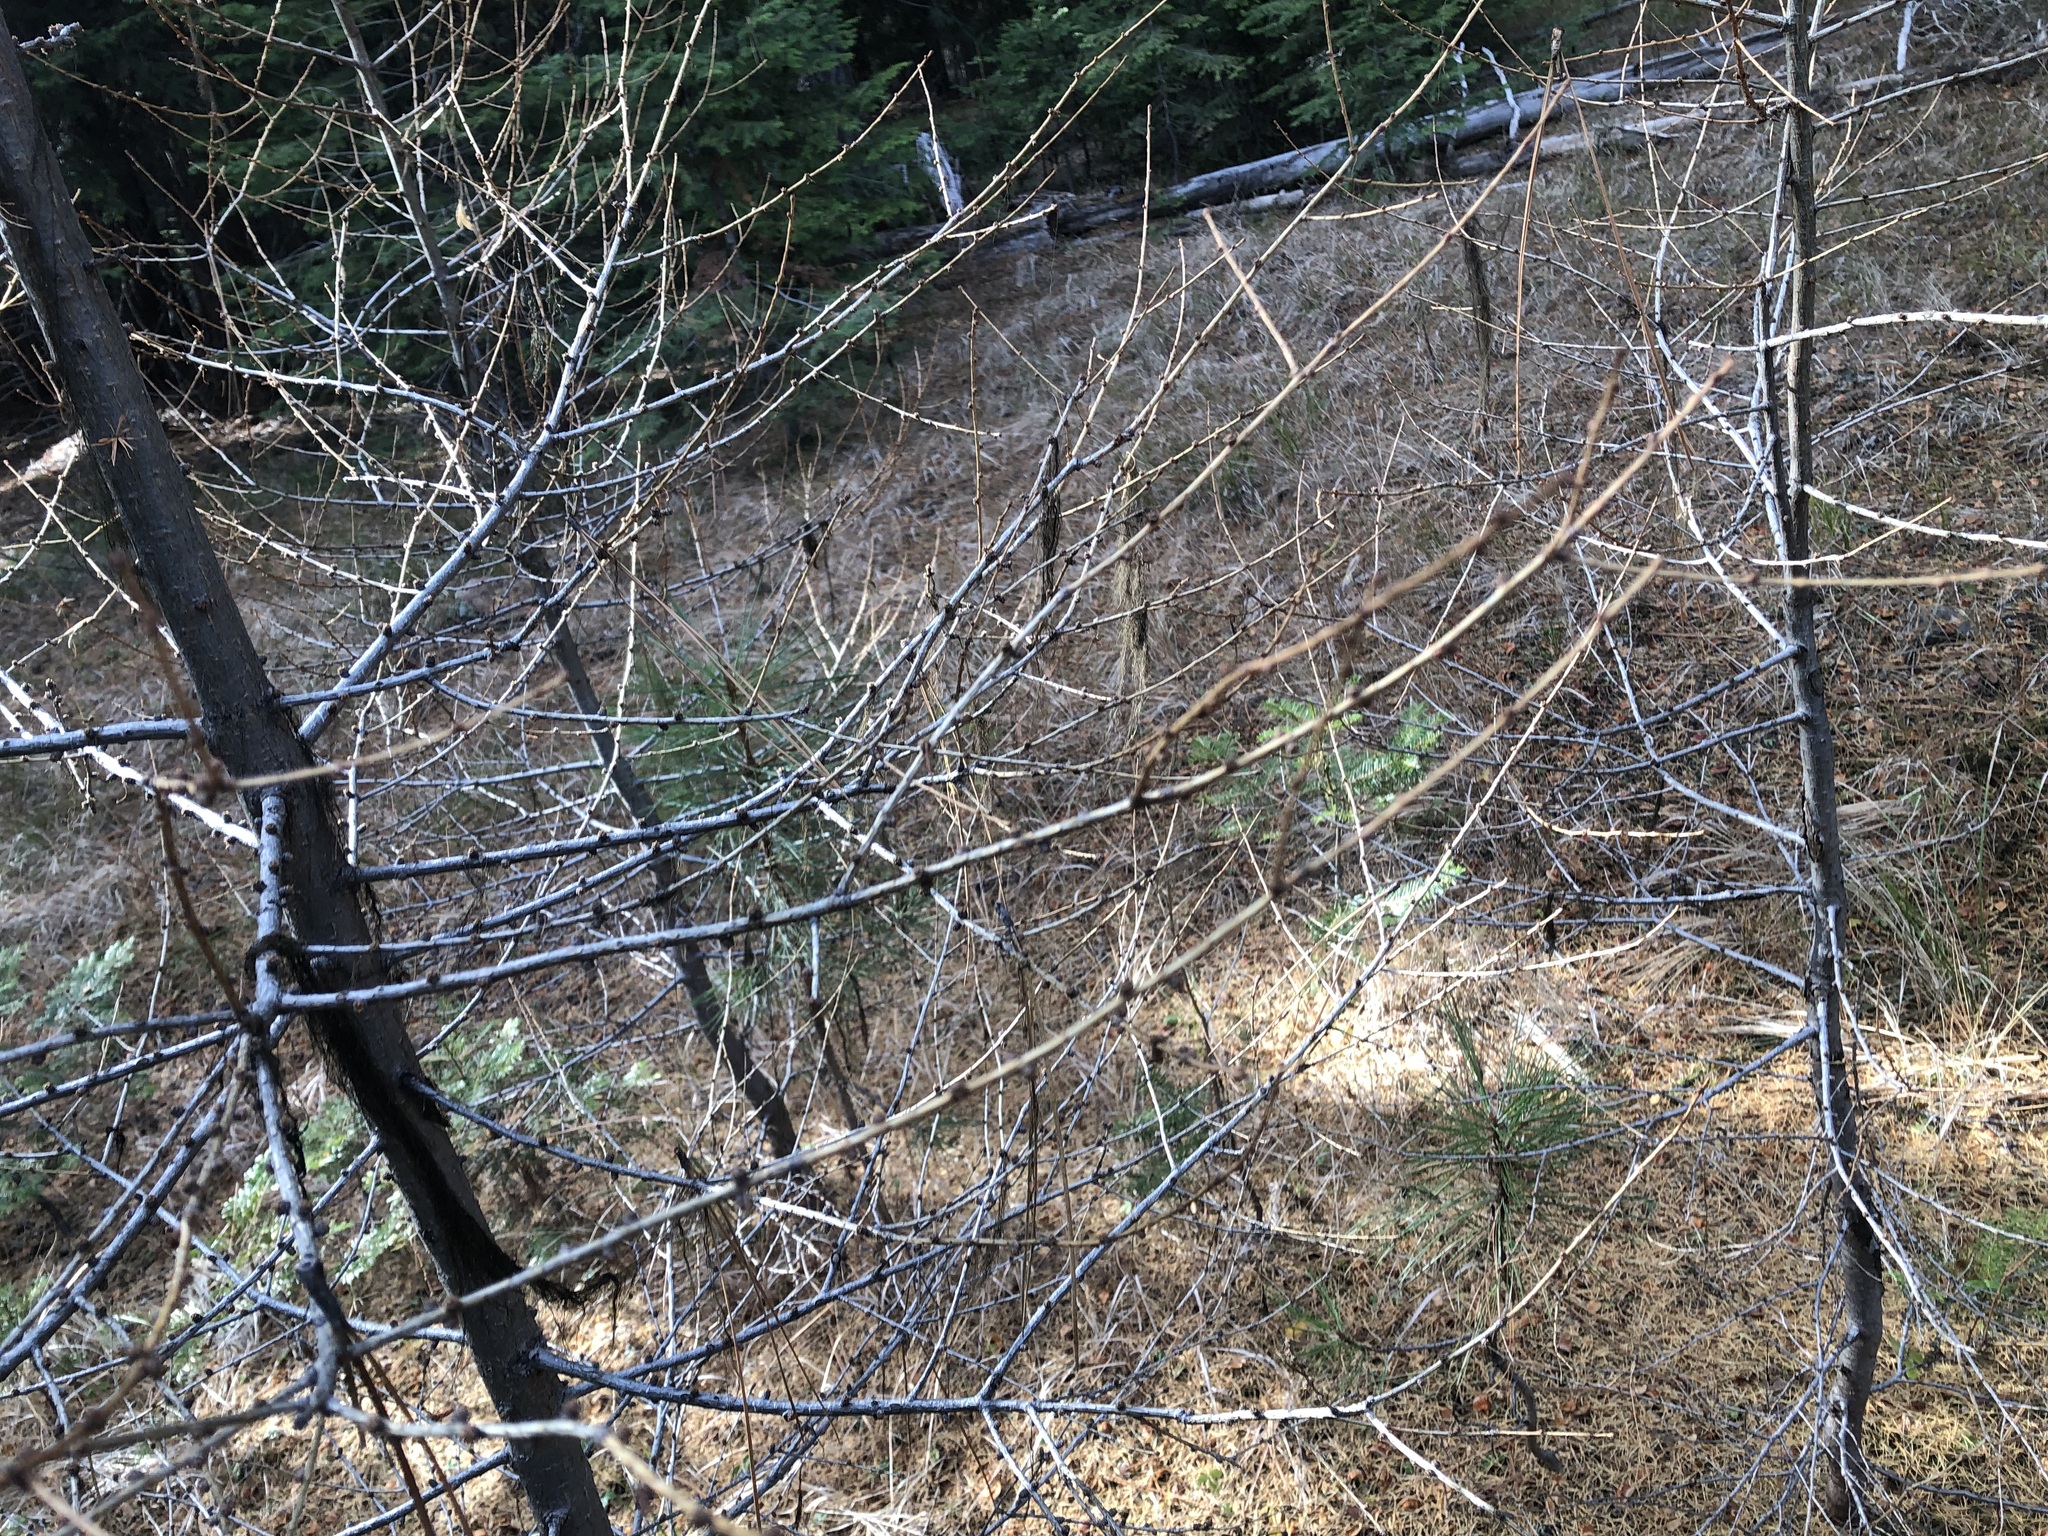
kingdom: Plantae
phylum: Tracheophyta
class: Pinopsida
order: Pinales
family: Pinaceae
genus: Larix
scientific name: Larix occidentalis
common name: Western larch
